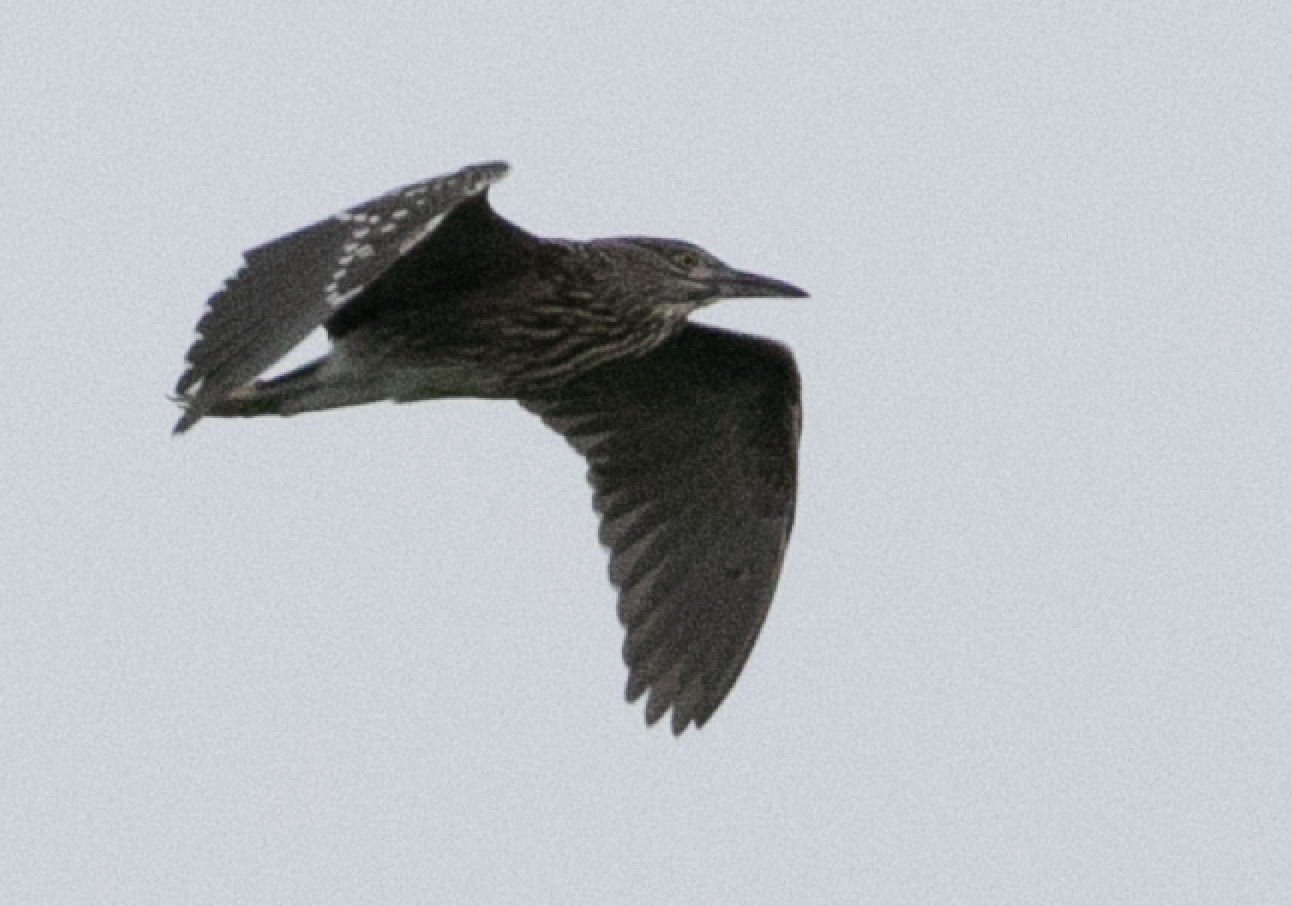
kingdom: Animalia
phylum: Chordata
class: Aves
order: Pelecaniformes
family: Ardeidae
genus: Nycticorax
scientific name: Nycticorax nycticorax
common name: Black-crowned night heron
